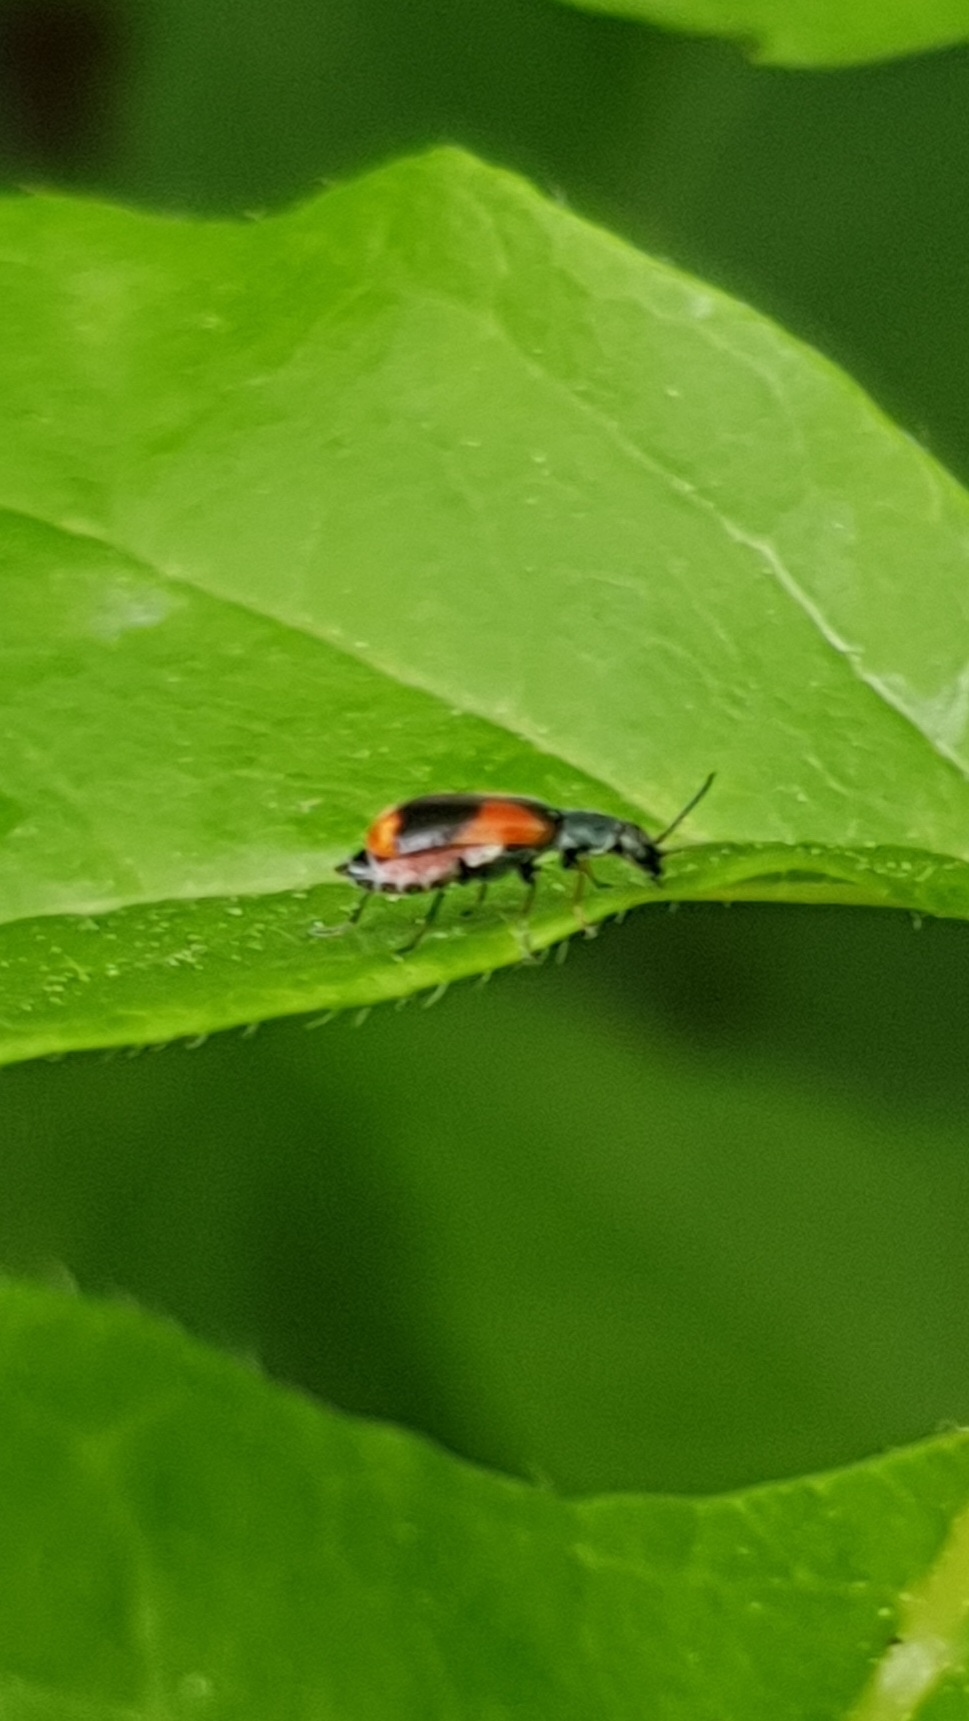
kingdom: Animalia
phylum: Arthropoda
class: Insecta
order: Coleoptera
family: Melyridae
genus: Anthocomus
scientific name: Anthocomus equestris
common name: Black-banded soft-winged flower beetle
